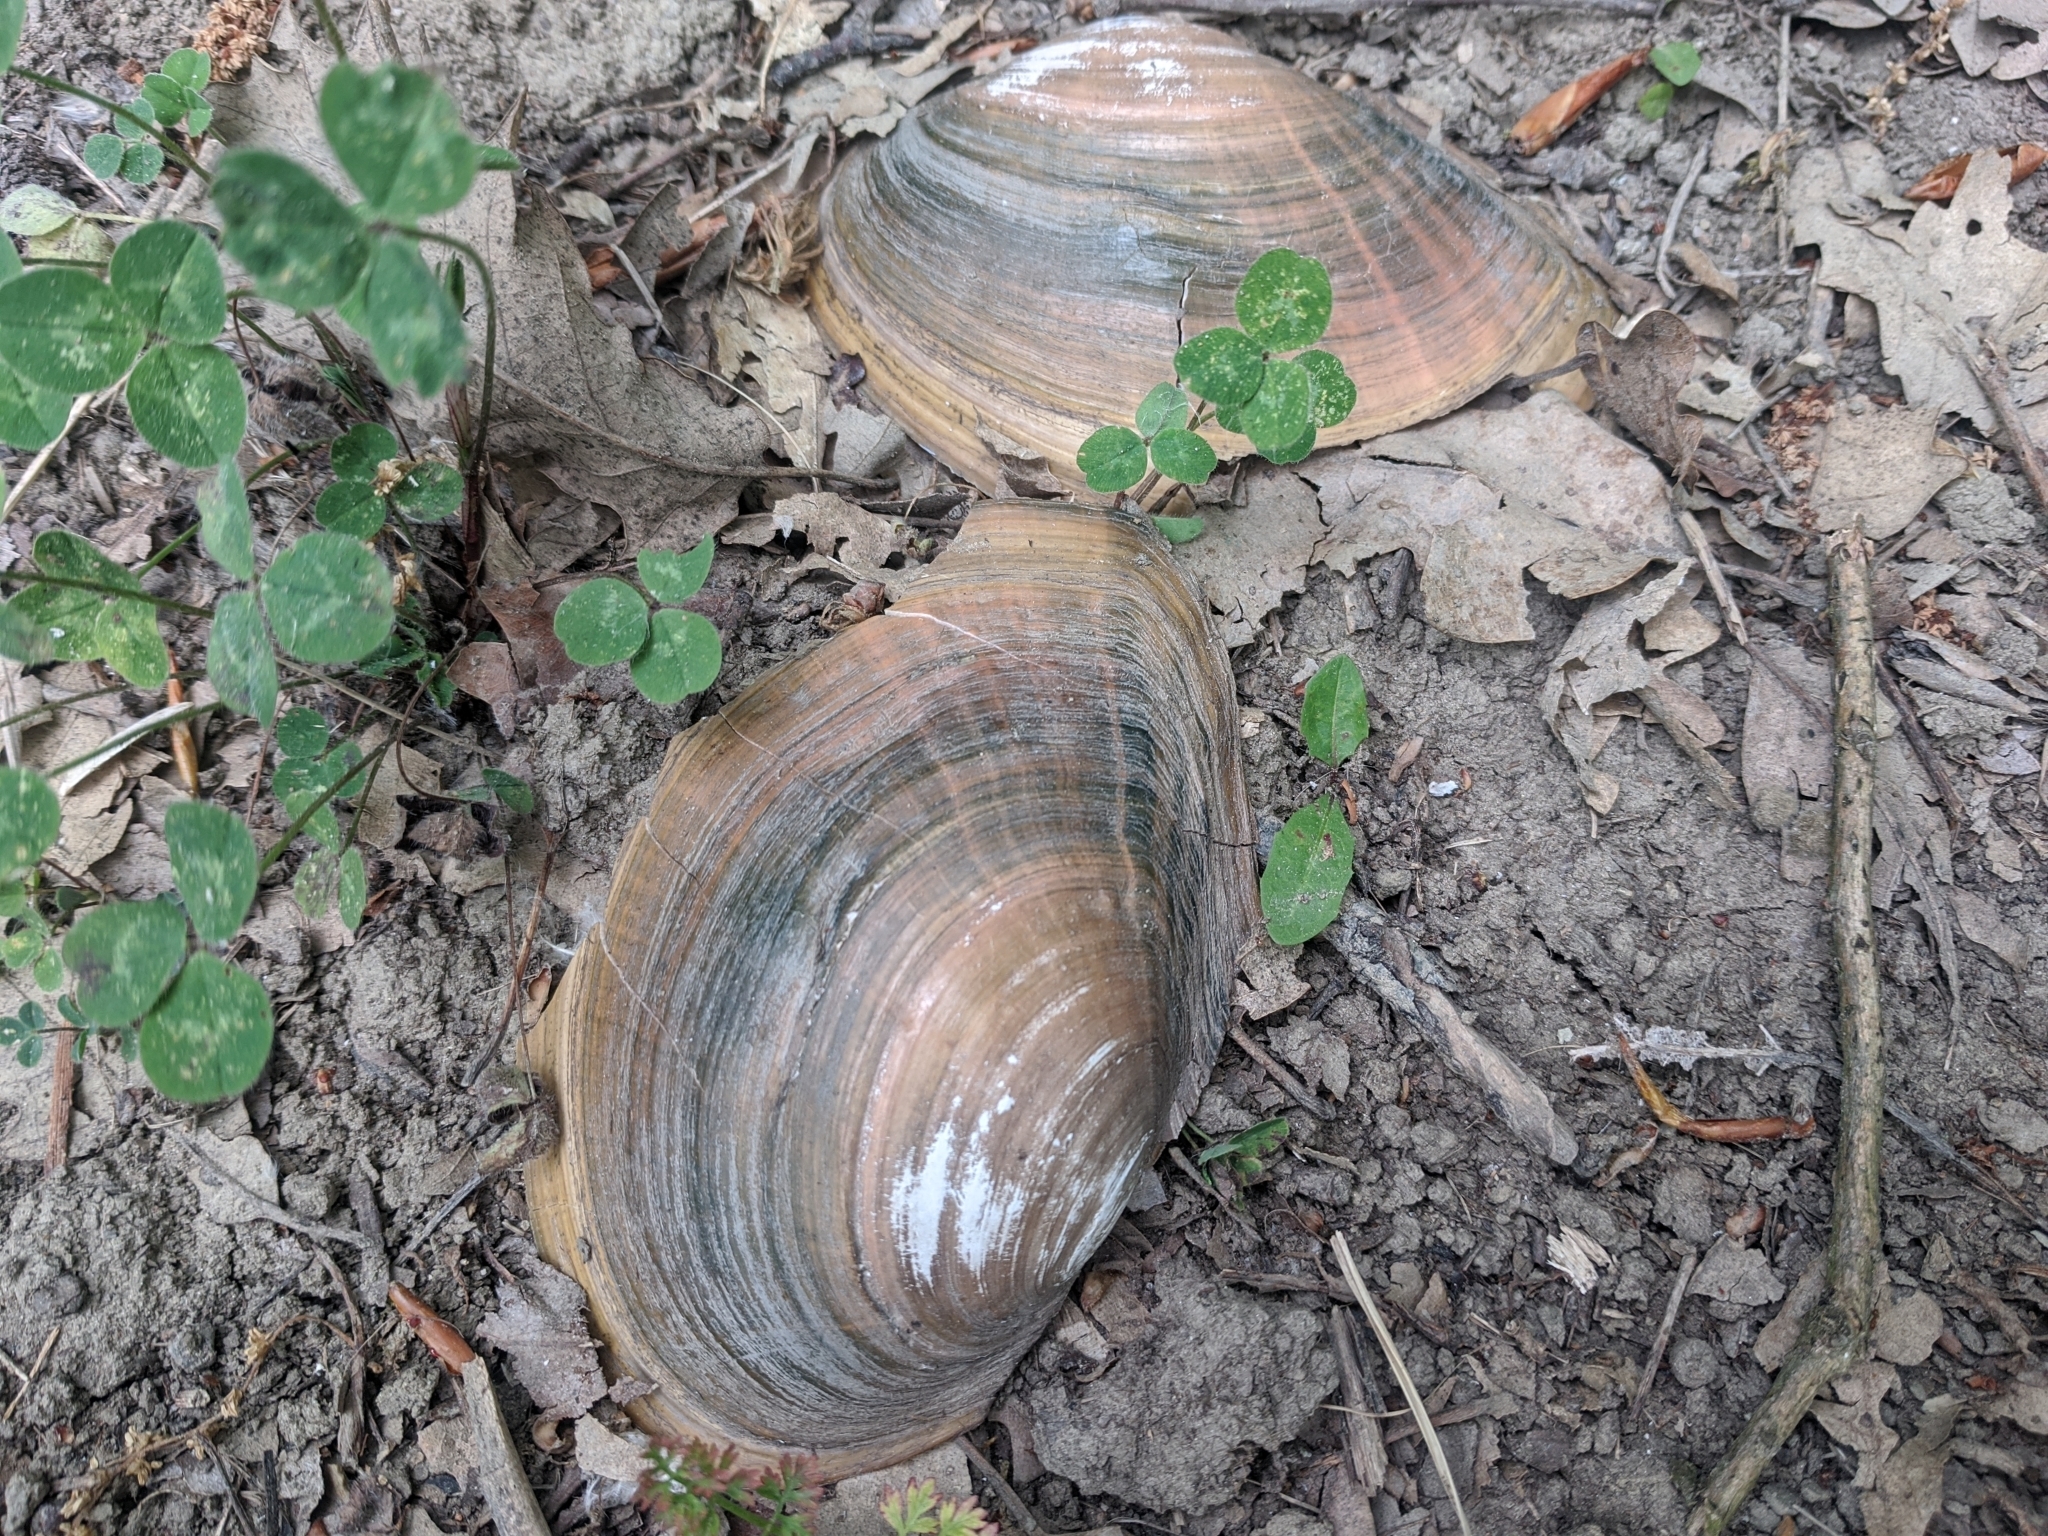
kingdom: Animalia
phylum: Mollusca
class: Bivalvia
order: Unionida
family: Unionidae
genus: Sinanodonta
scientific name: Sinanodonta woodiana
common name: Chinese pond mussel
